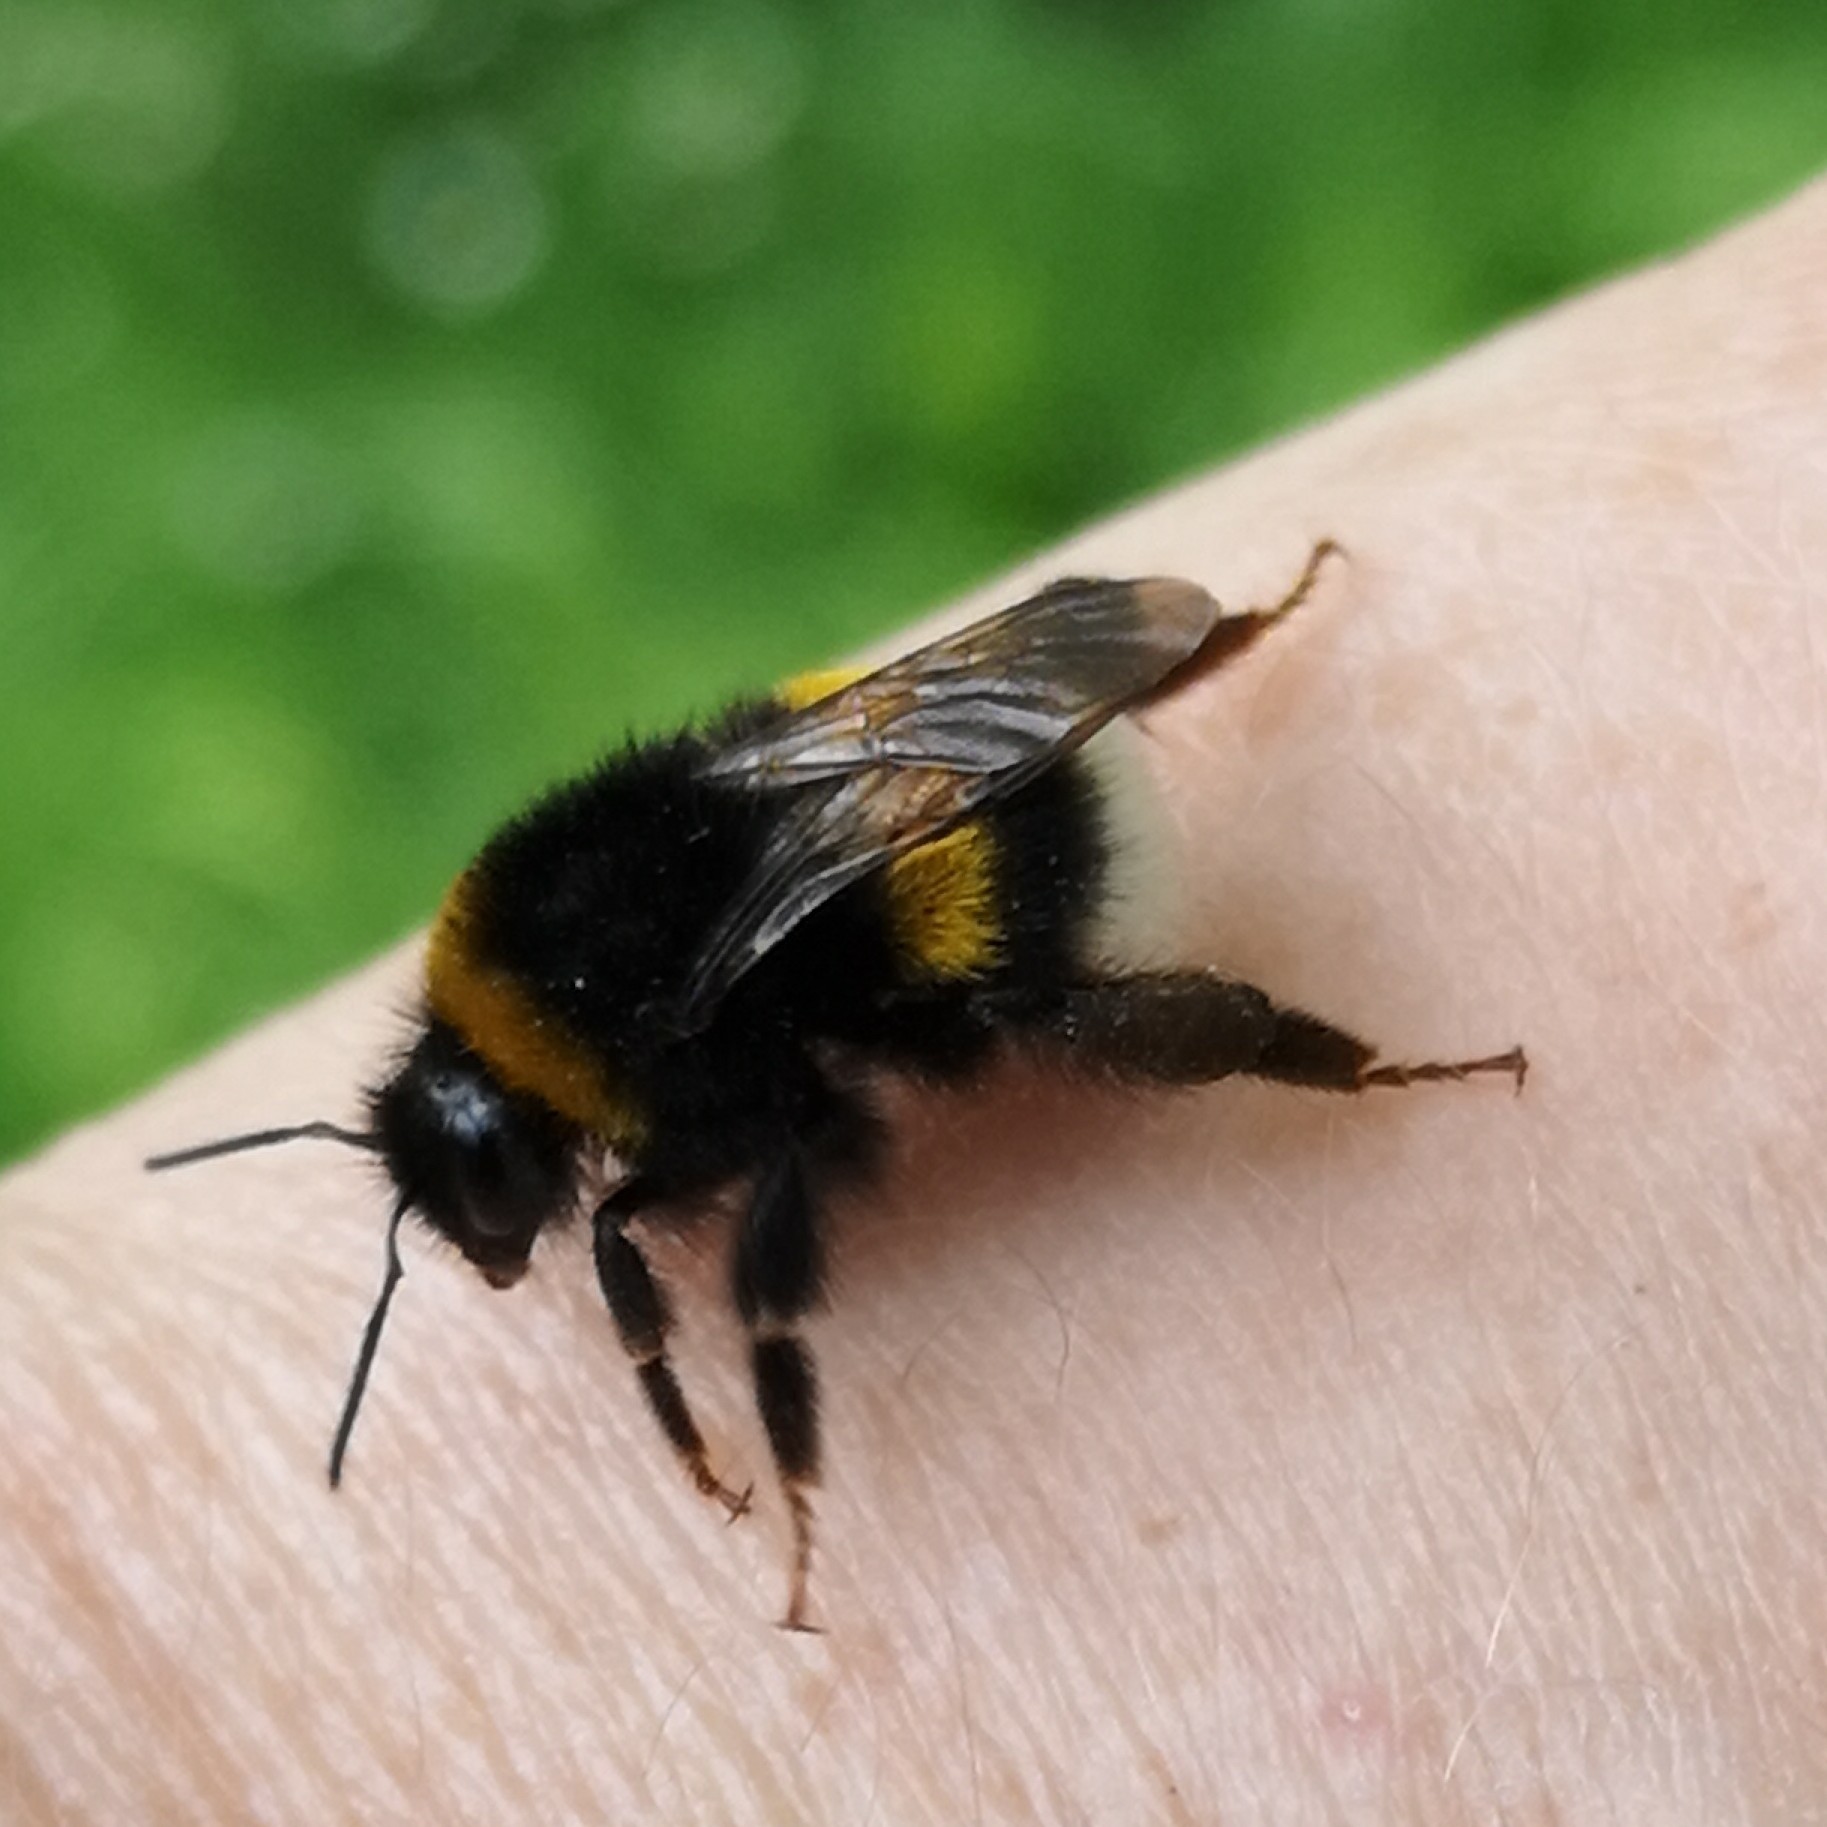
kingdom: Animalia
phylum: Arthropoda
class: Insecta
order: Hymenoptera
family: Apidae
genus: Bombus
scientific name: Bombus terrestris
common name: Buff-tailed bumblebee
